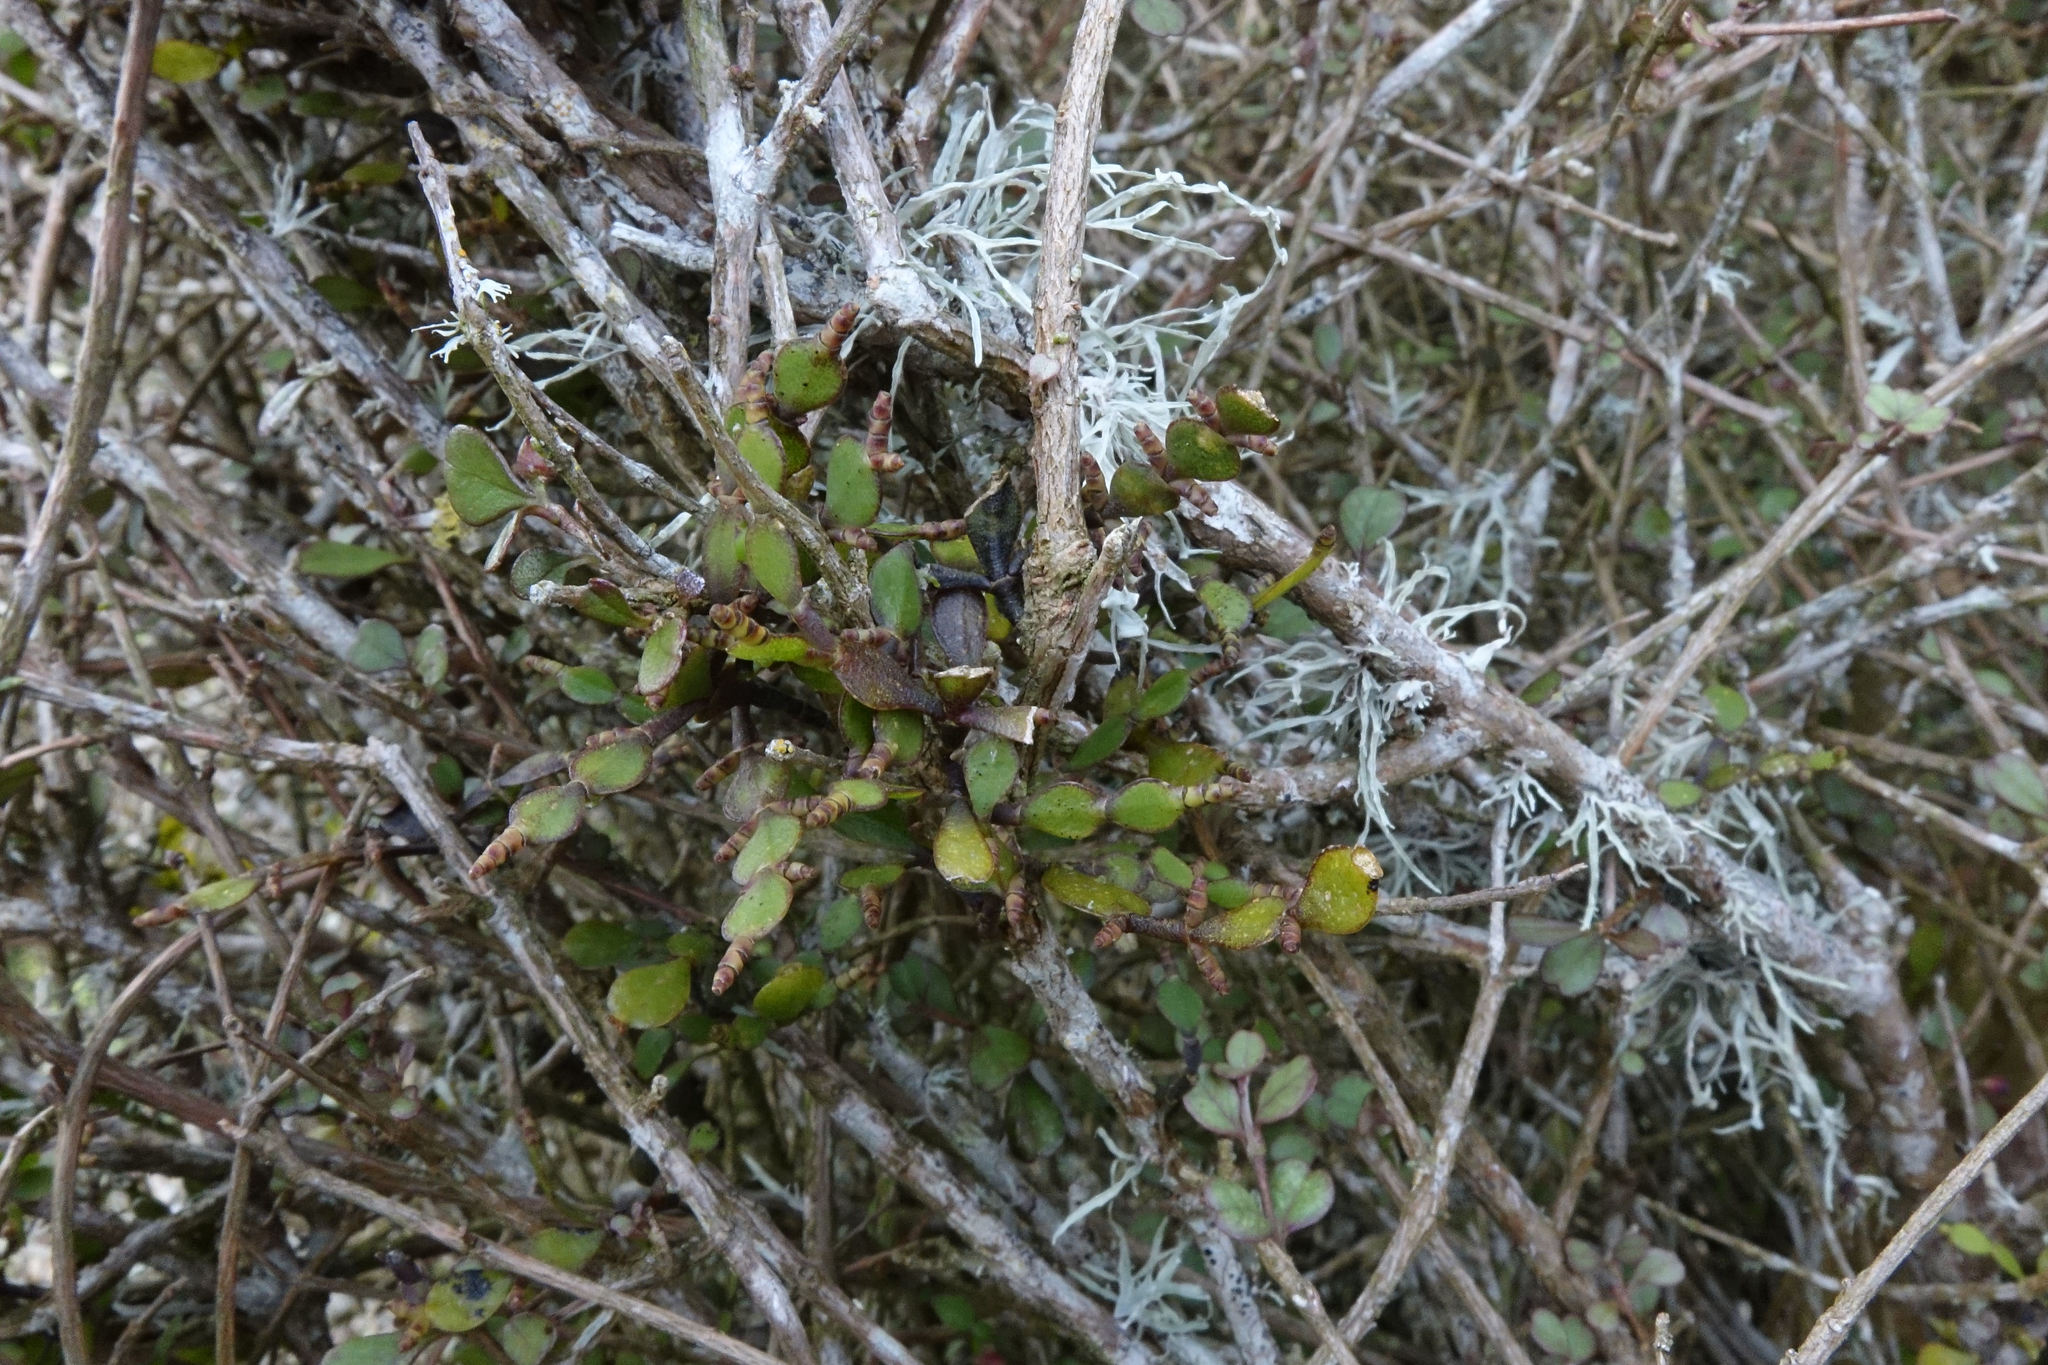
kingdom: Plantae
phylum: Tracheophyta
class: Magnoliopsida
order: Santalales
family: Viscaceae
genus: Korthalsella
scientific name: Korthalsella lindsayi
